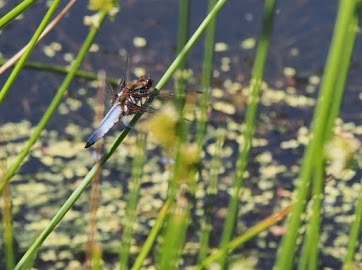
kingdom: Animalia
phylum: Arthropoda
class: Insecta
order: Odonata
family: Libellulidae
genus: Libellula
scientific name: Libellula depressa
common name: Broad-bodied chaser
